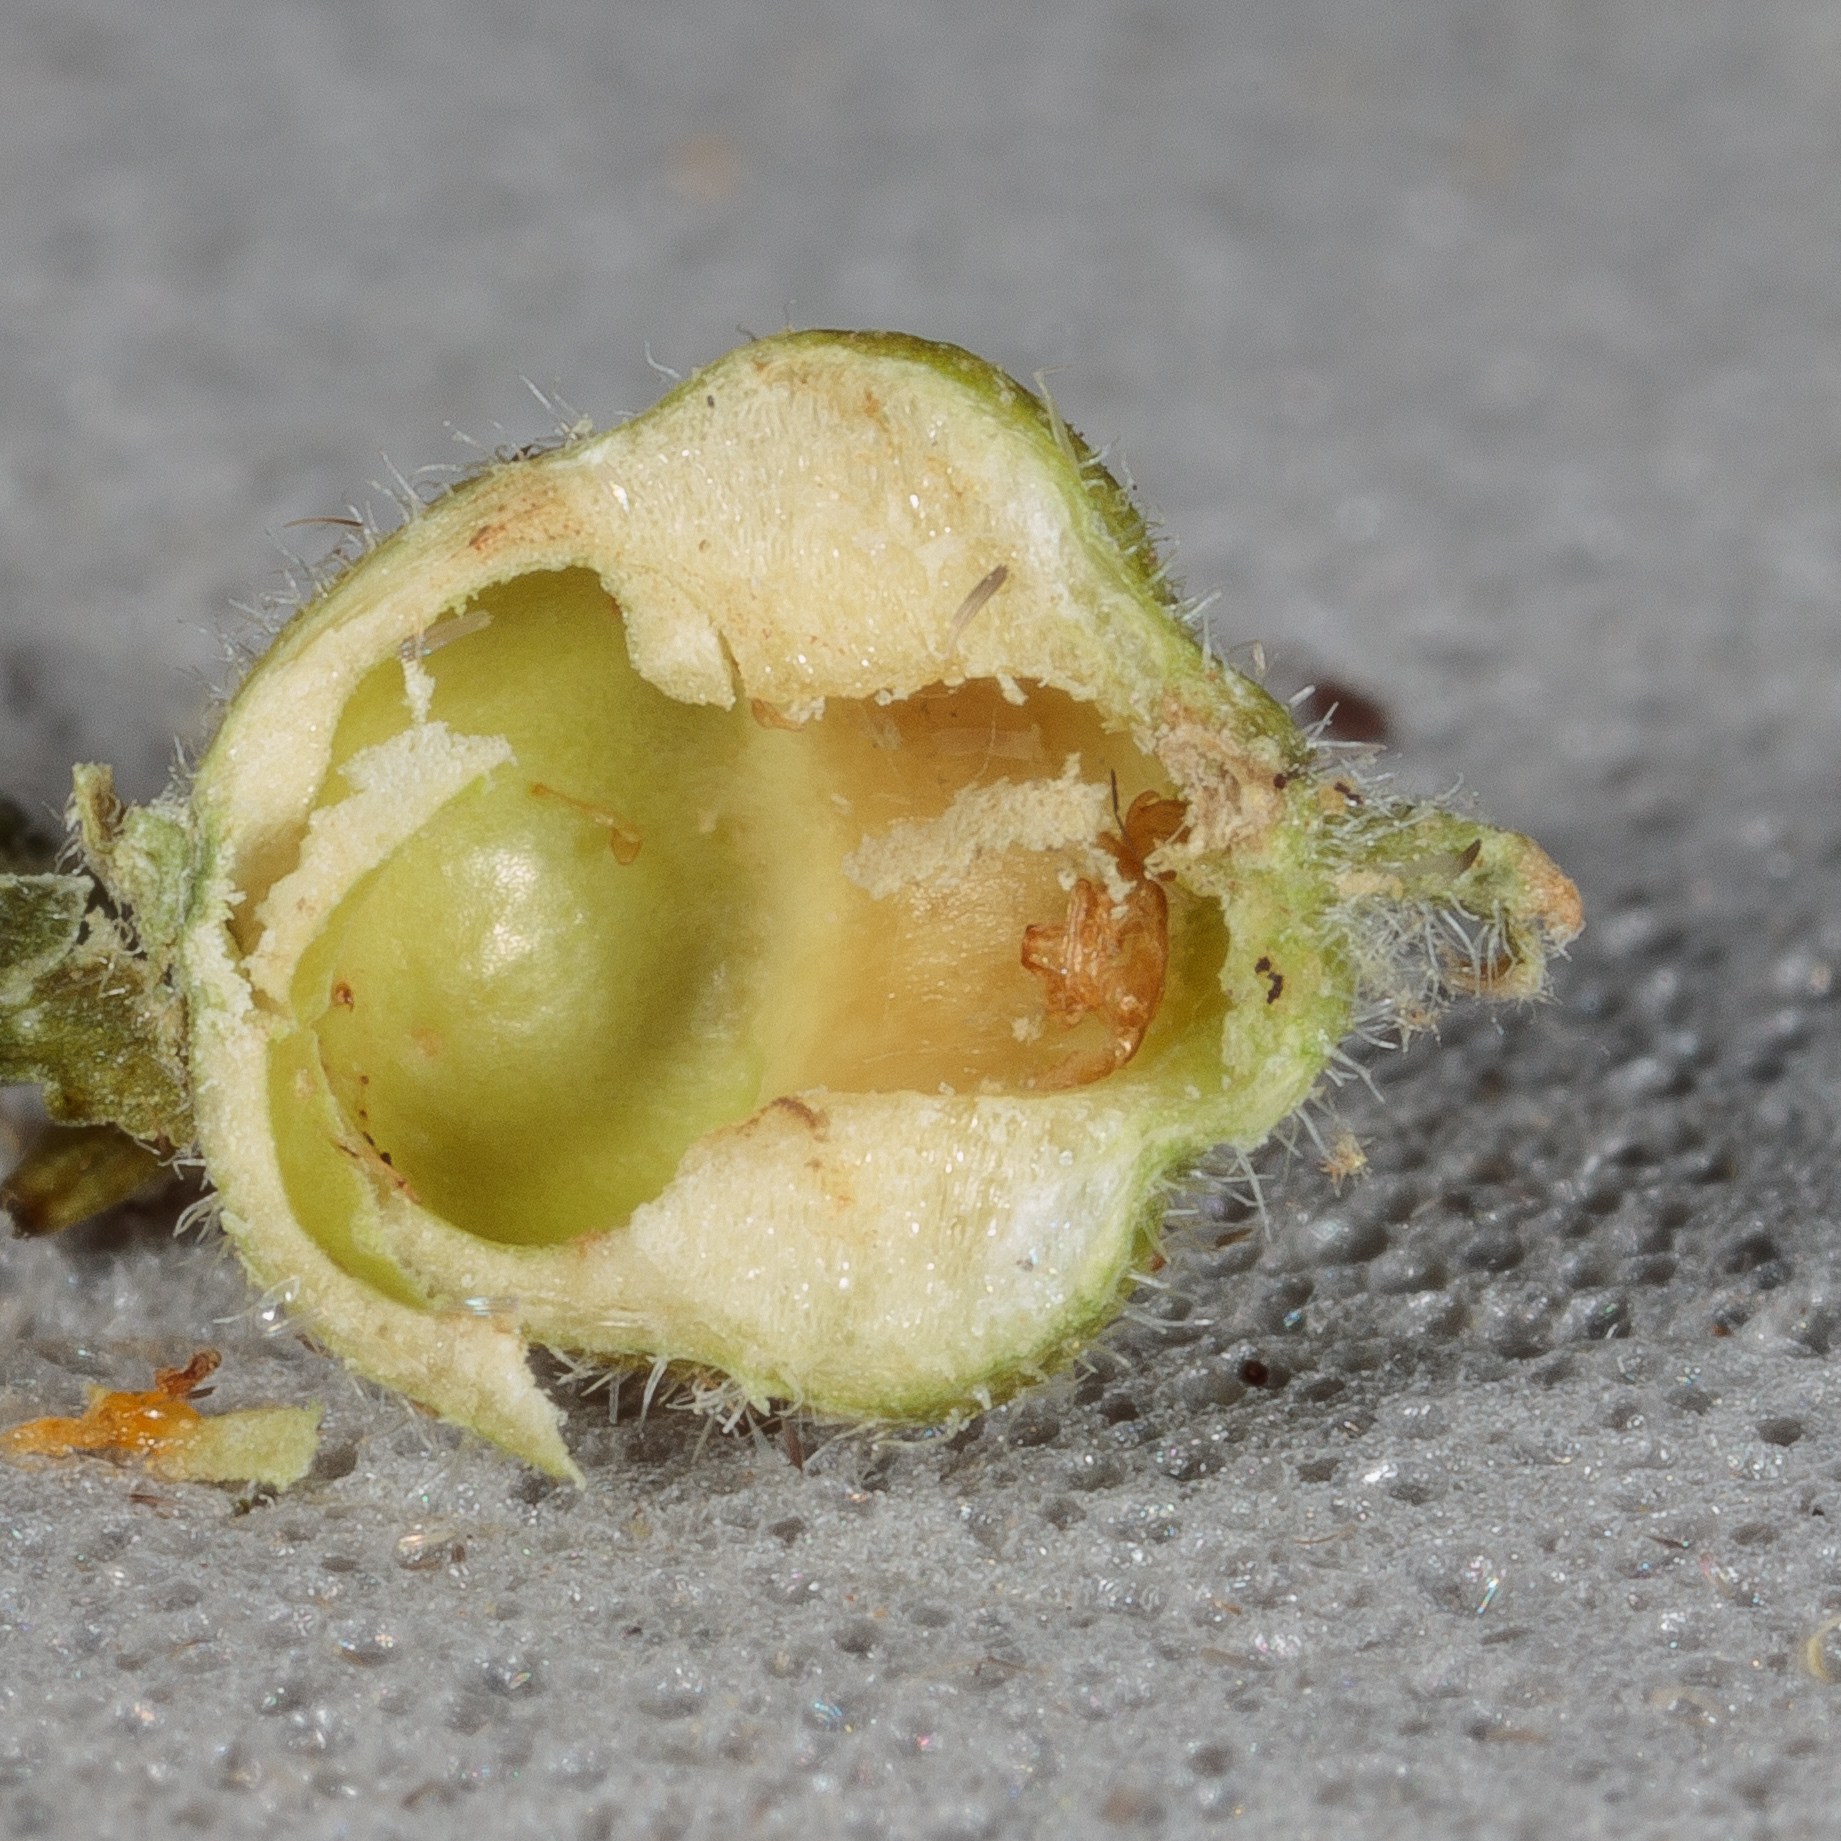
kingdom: Animalia
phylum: Arthropoda
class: Insecta
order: Diptera
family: Cecidomyiidae
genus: Celticecis
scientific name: Celticecis celtiphyllia
